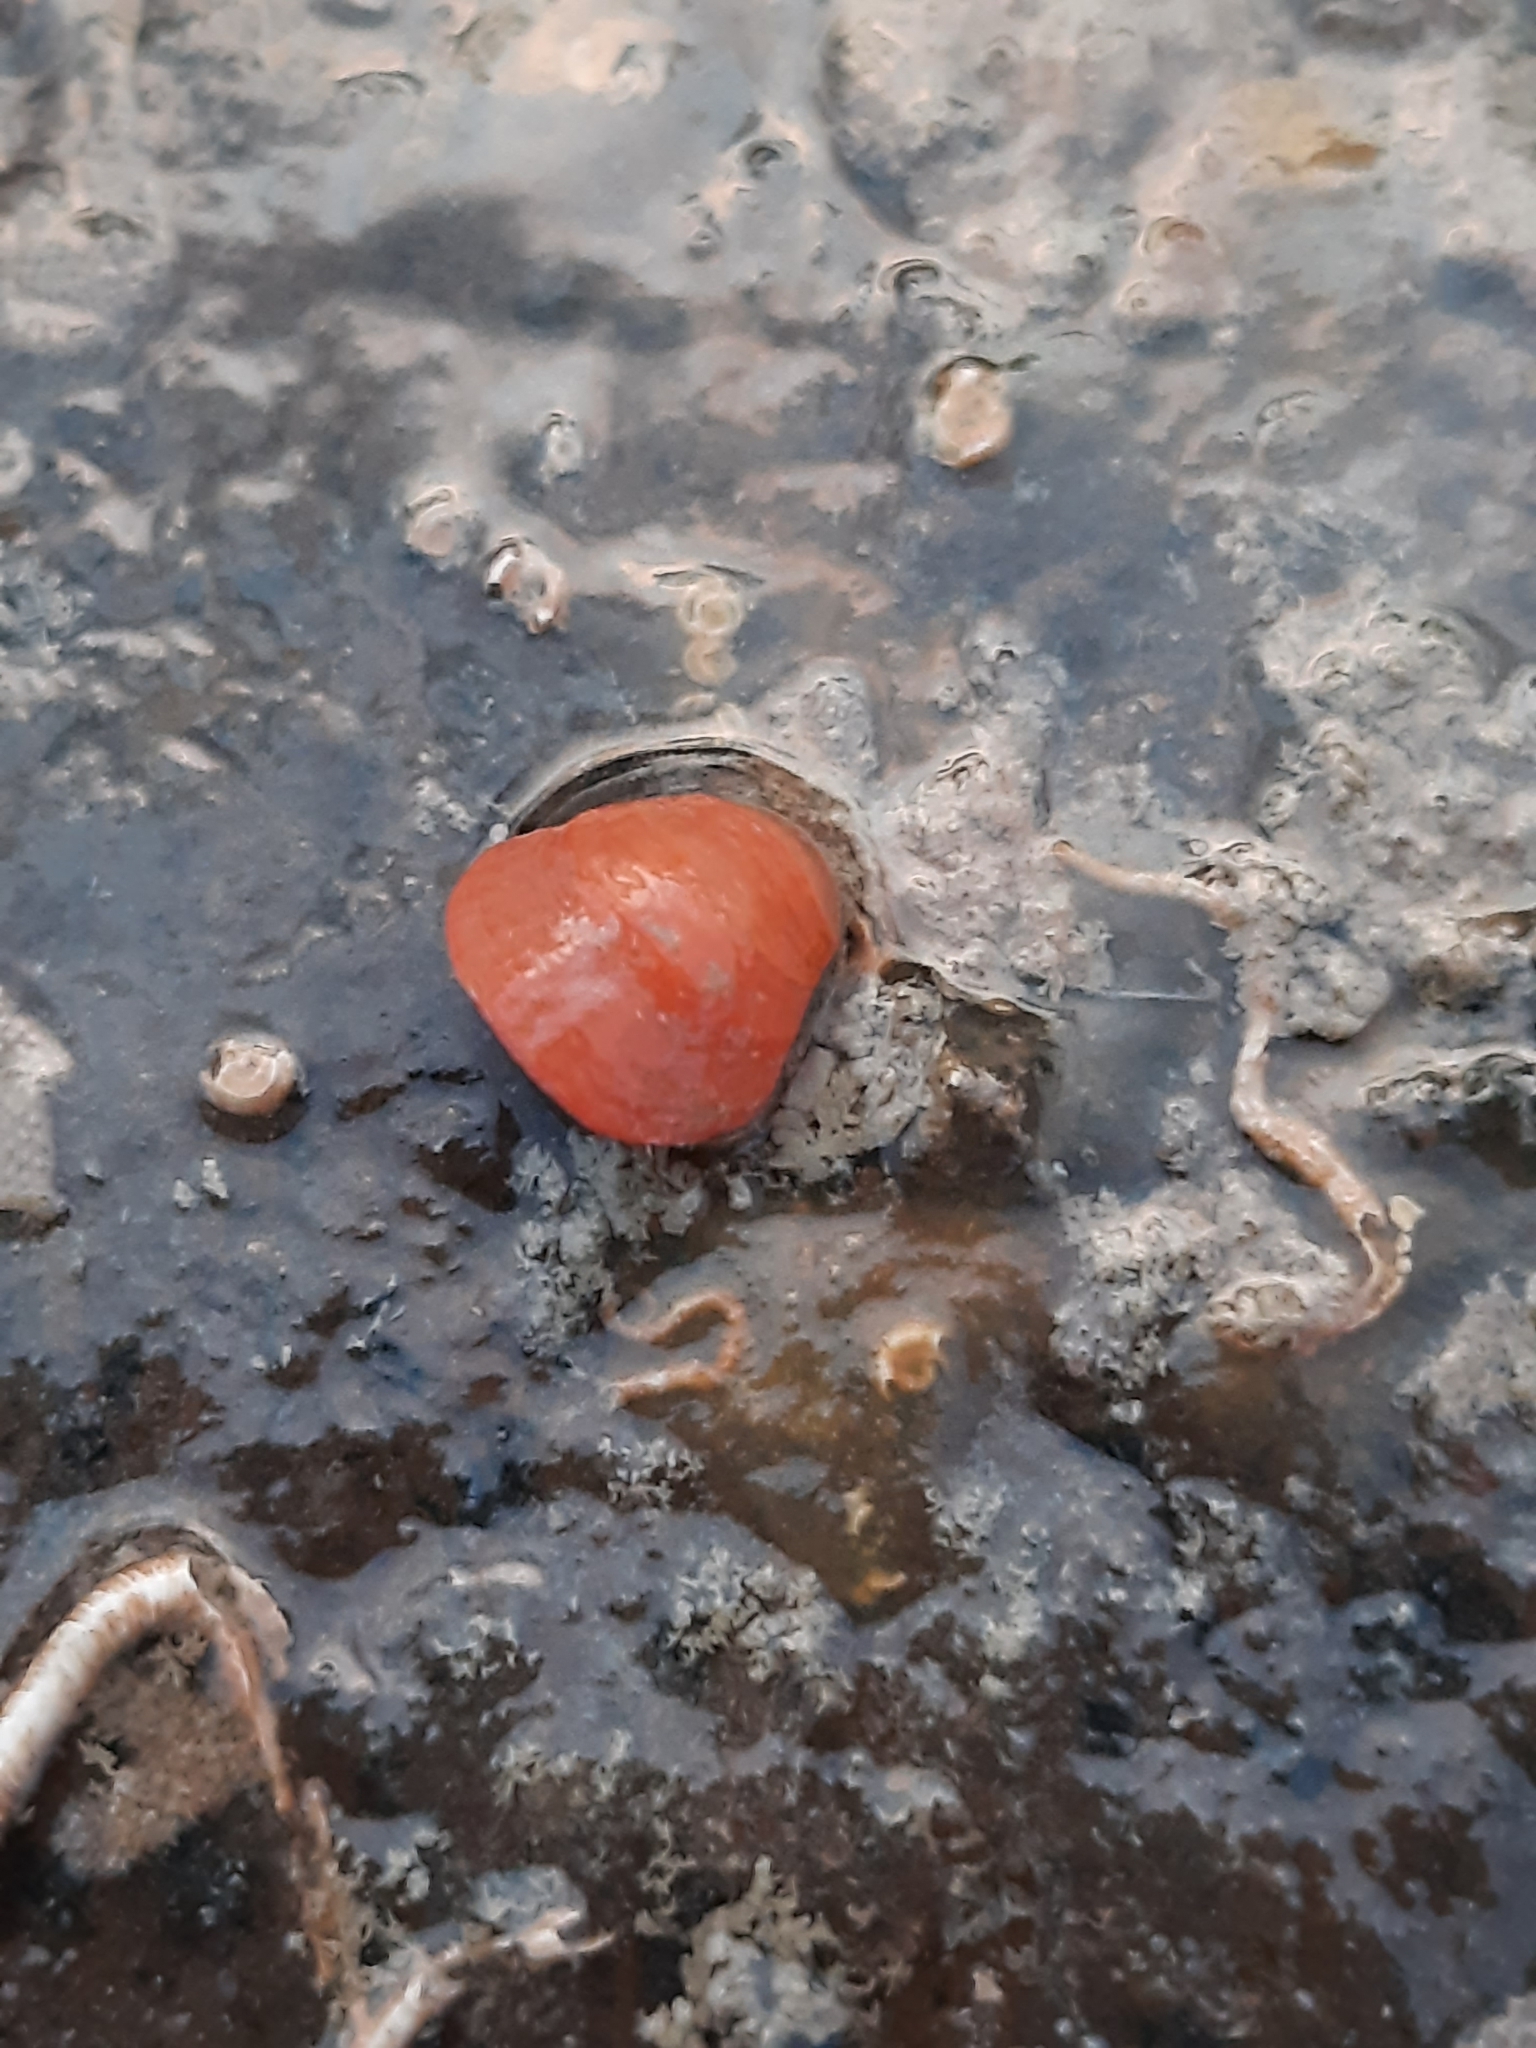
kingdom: Animalia
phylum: Brachiopoda
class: Rhynchonellata
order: Terebratulida
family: Terebratellidae
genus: Calloria
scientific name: Calloria inconspicua
